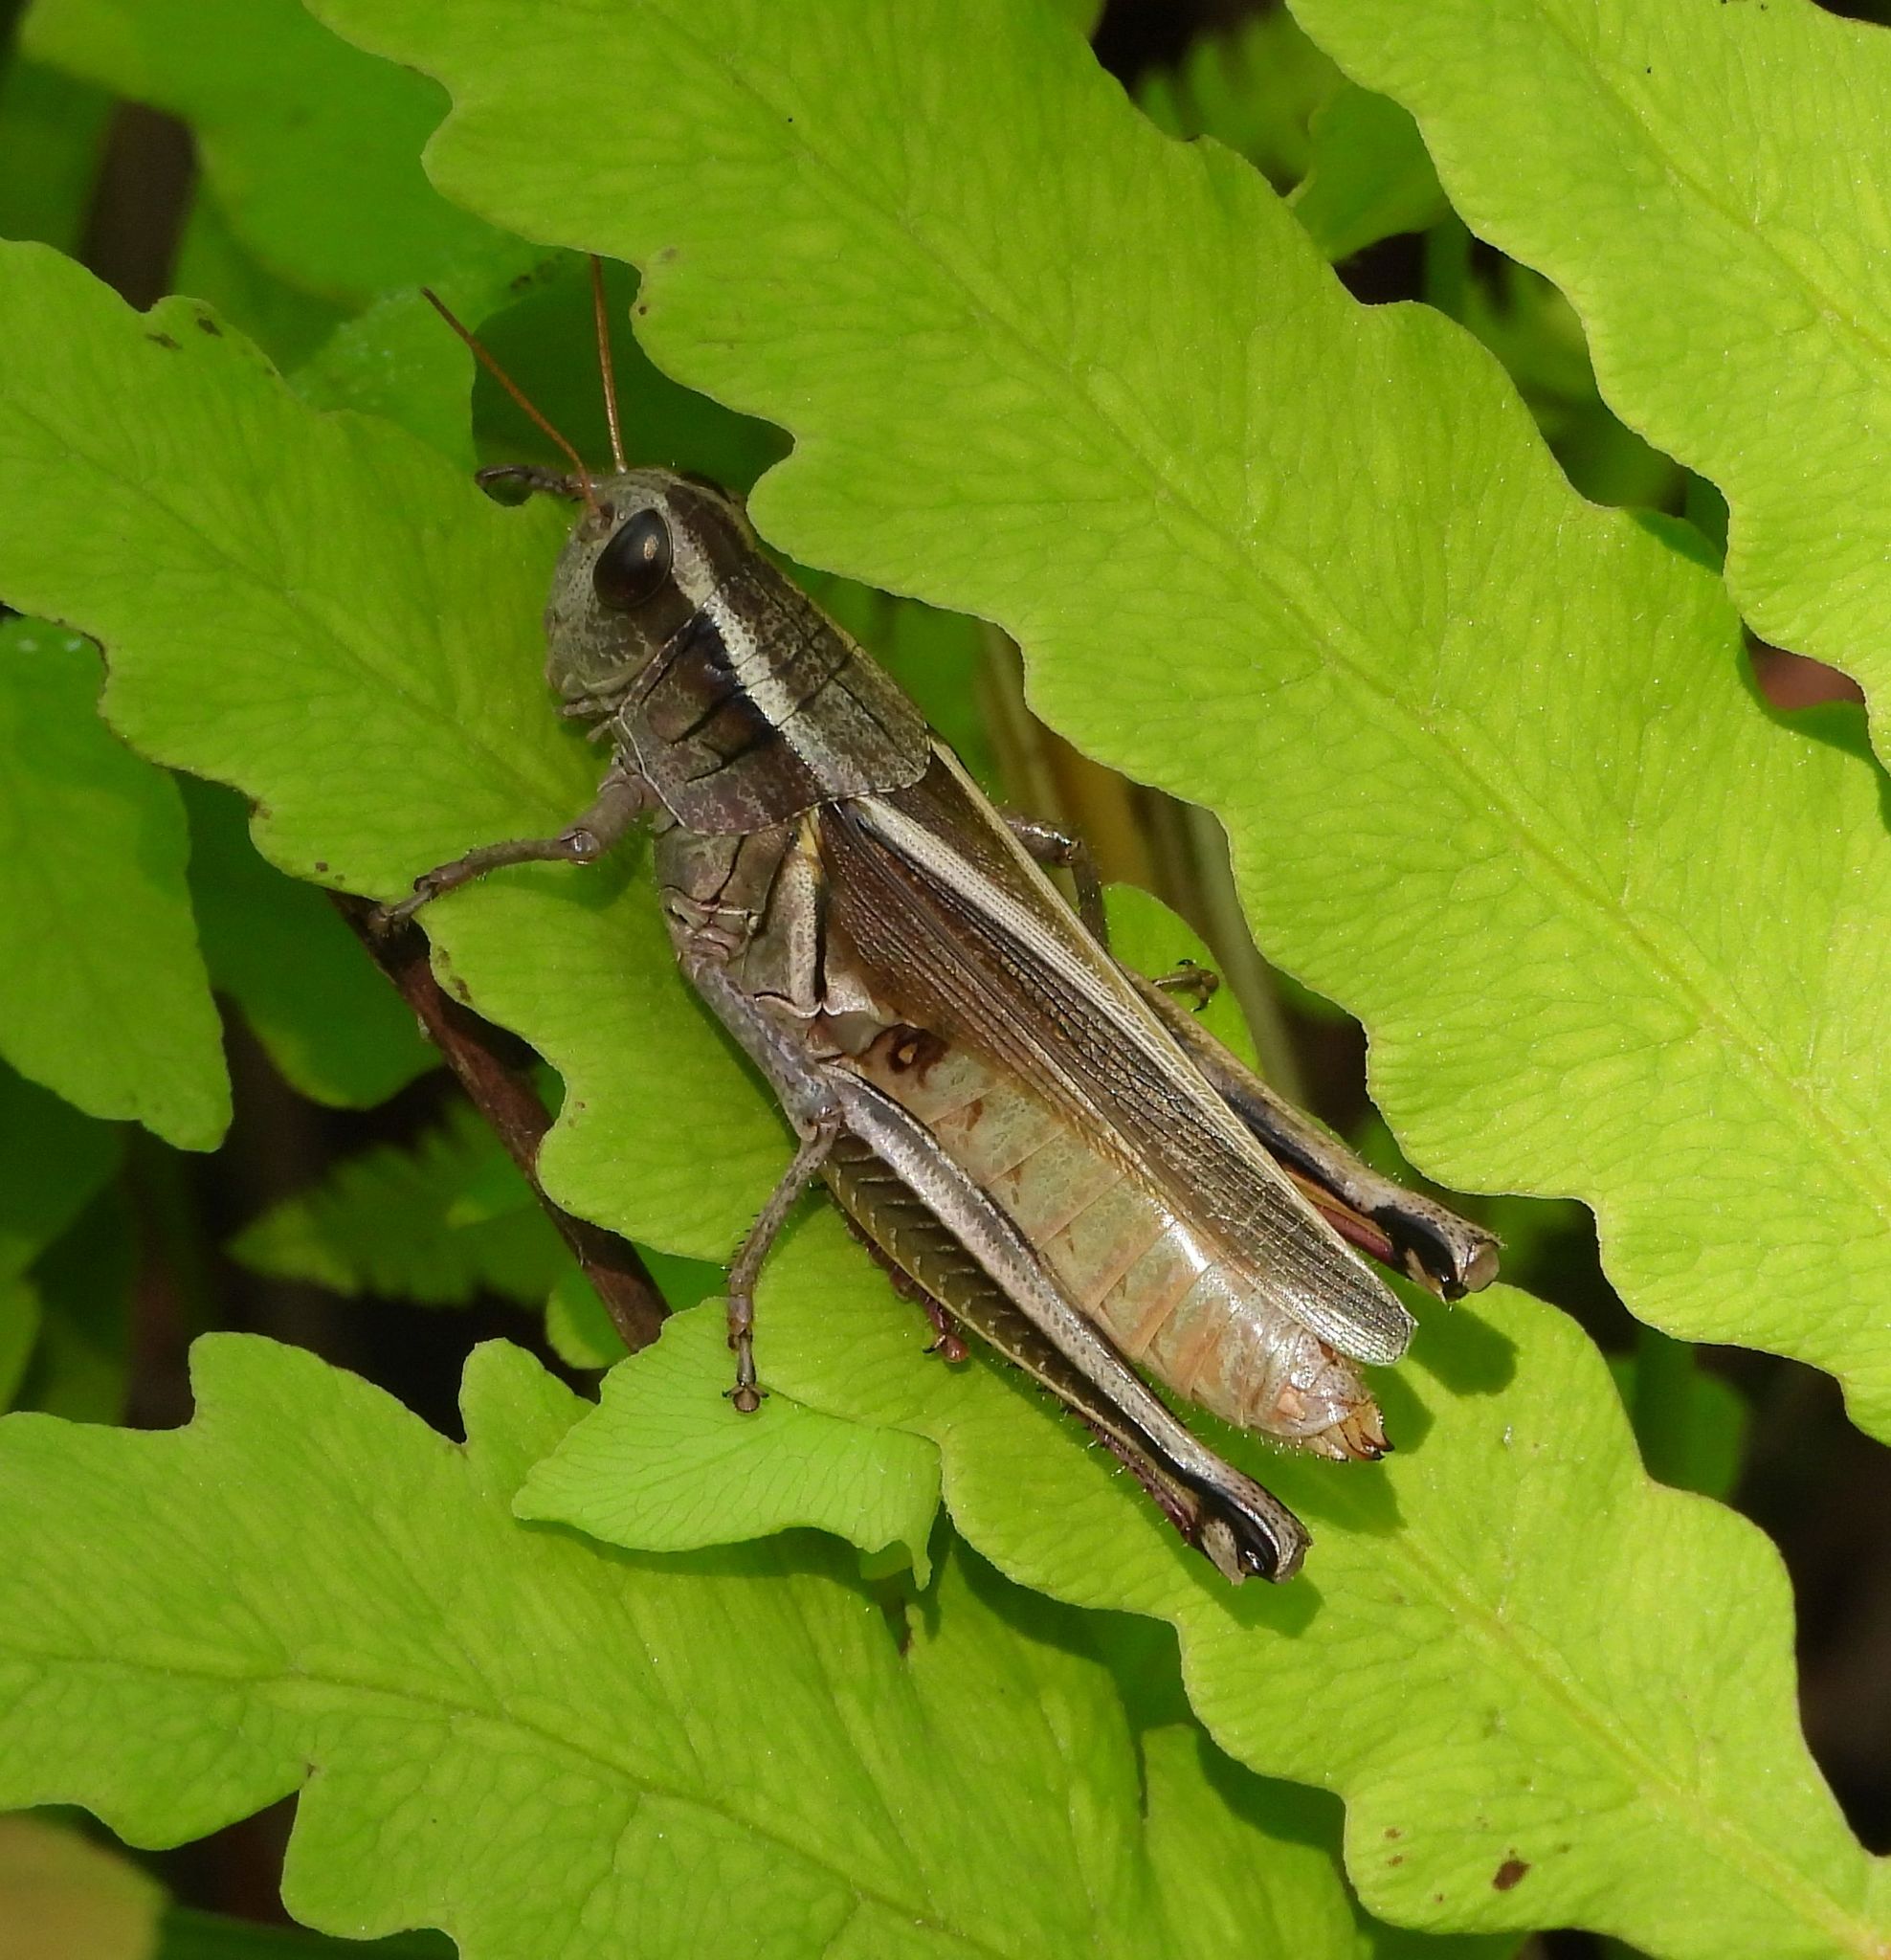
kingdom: Animalia
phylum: Arthropoda
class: Insecta
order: Orthoptera
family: Acrididae
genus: Melanoplus
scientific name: Melanoplus bivittatus
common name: Two-striped grasshopper
